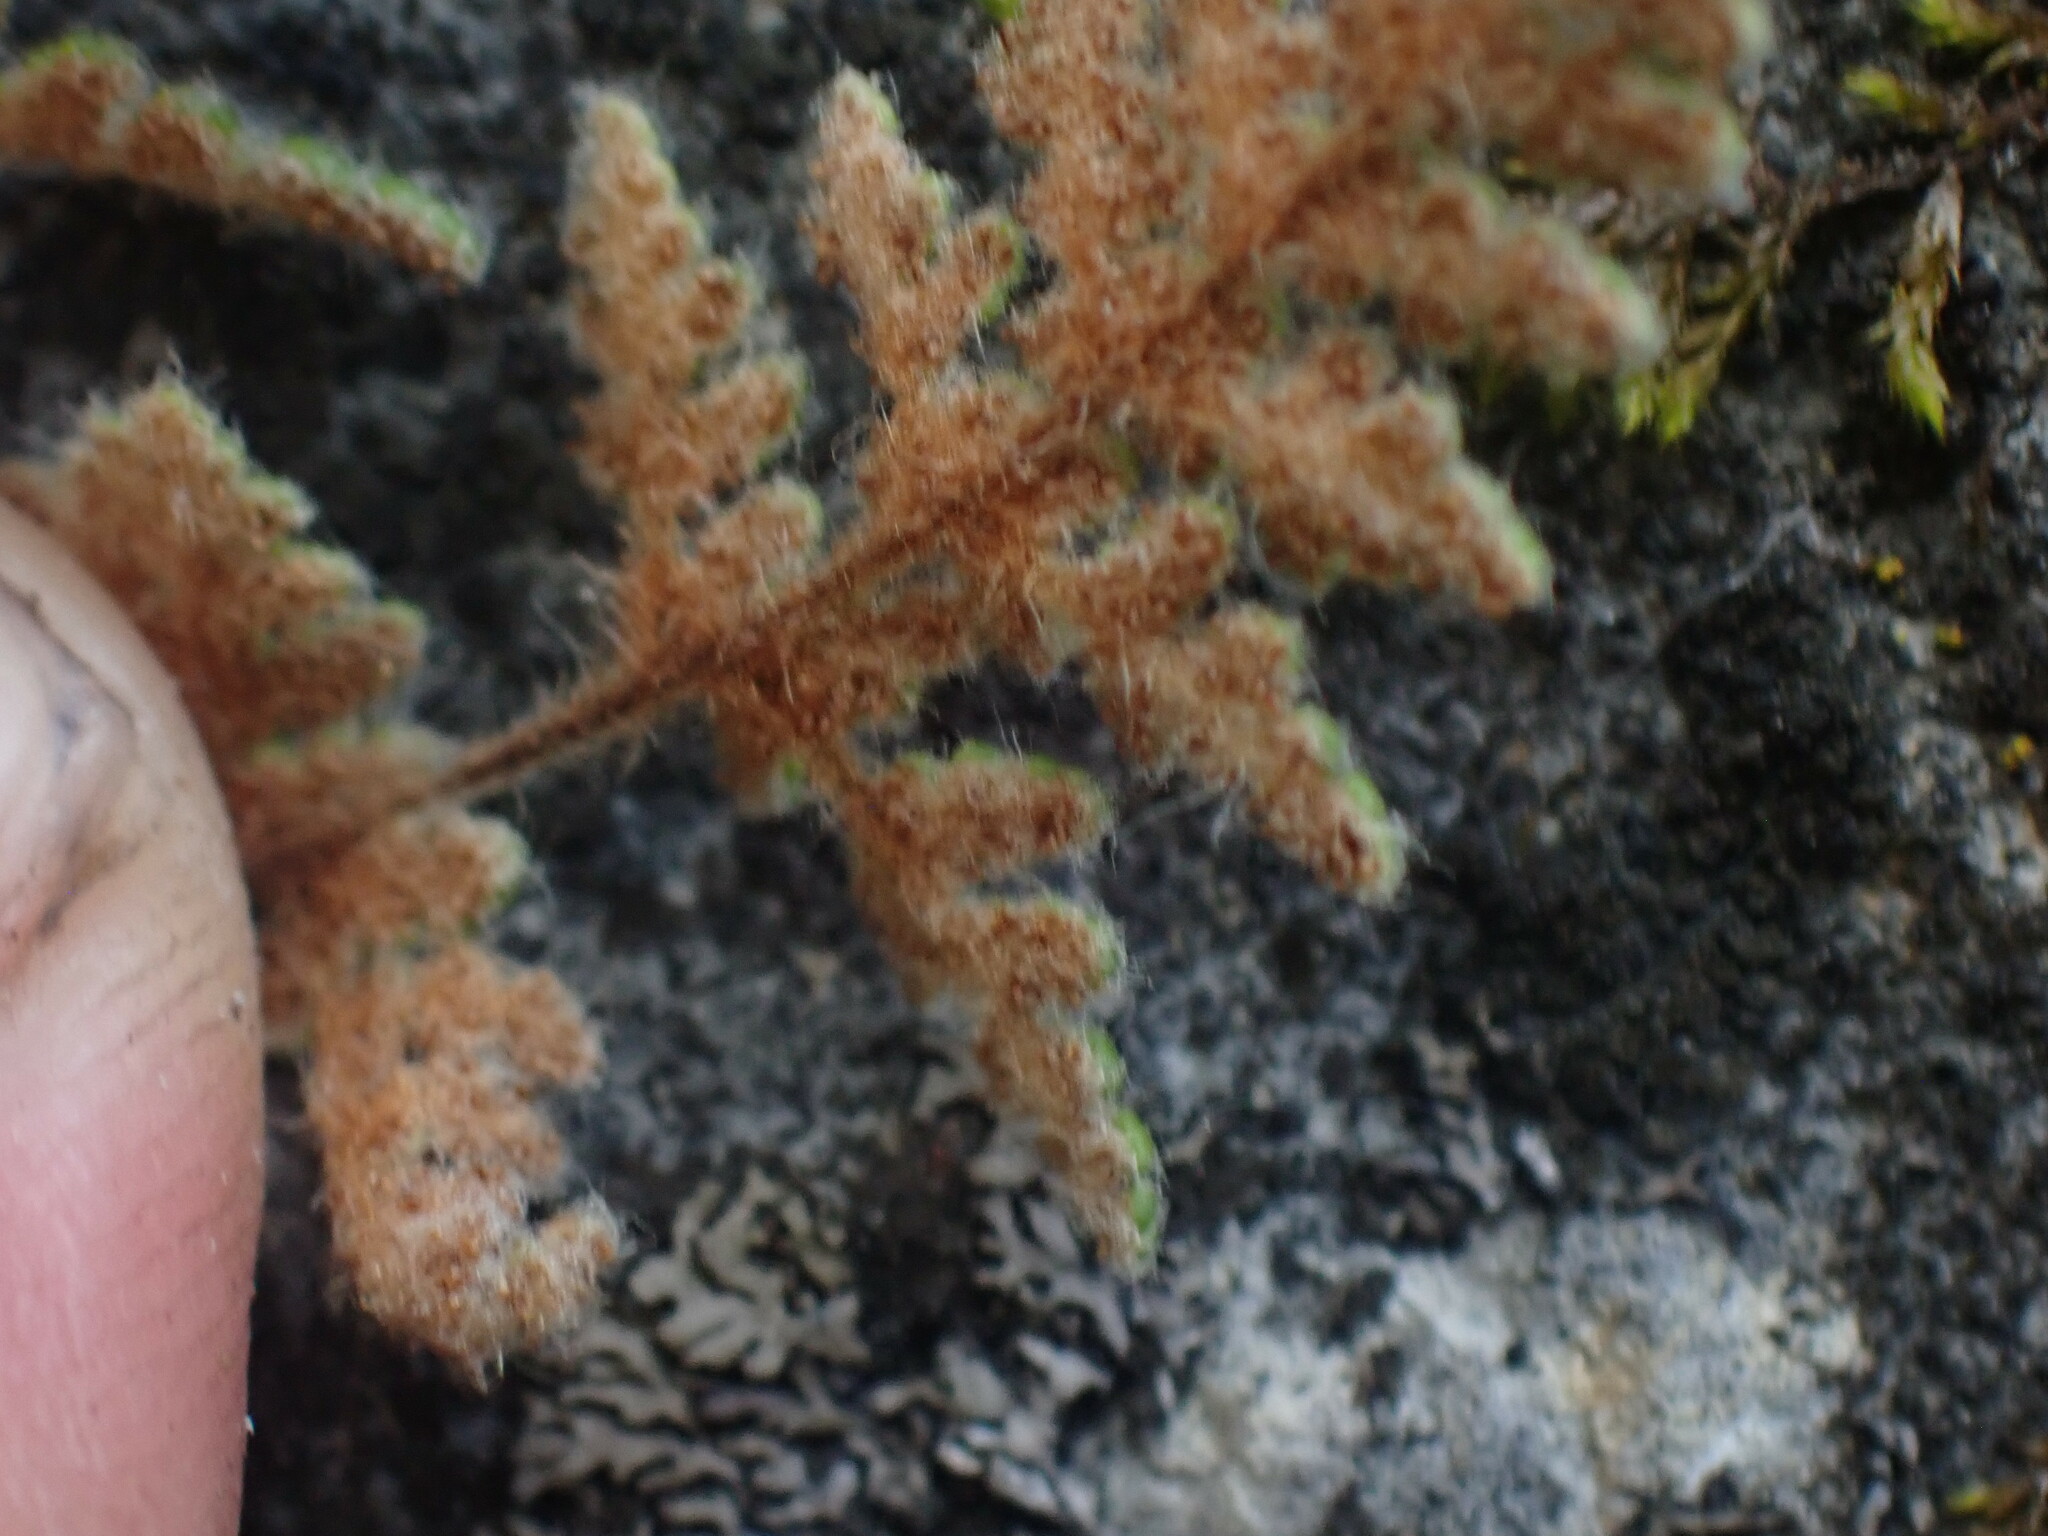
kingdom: Plantae
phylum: Tracheophyta
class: Polypodiopsida
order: Polypodiales
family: Pteridaceae
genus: Myriopteris
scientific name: Myriopteris gracilis
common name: Fee's lip fern
